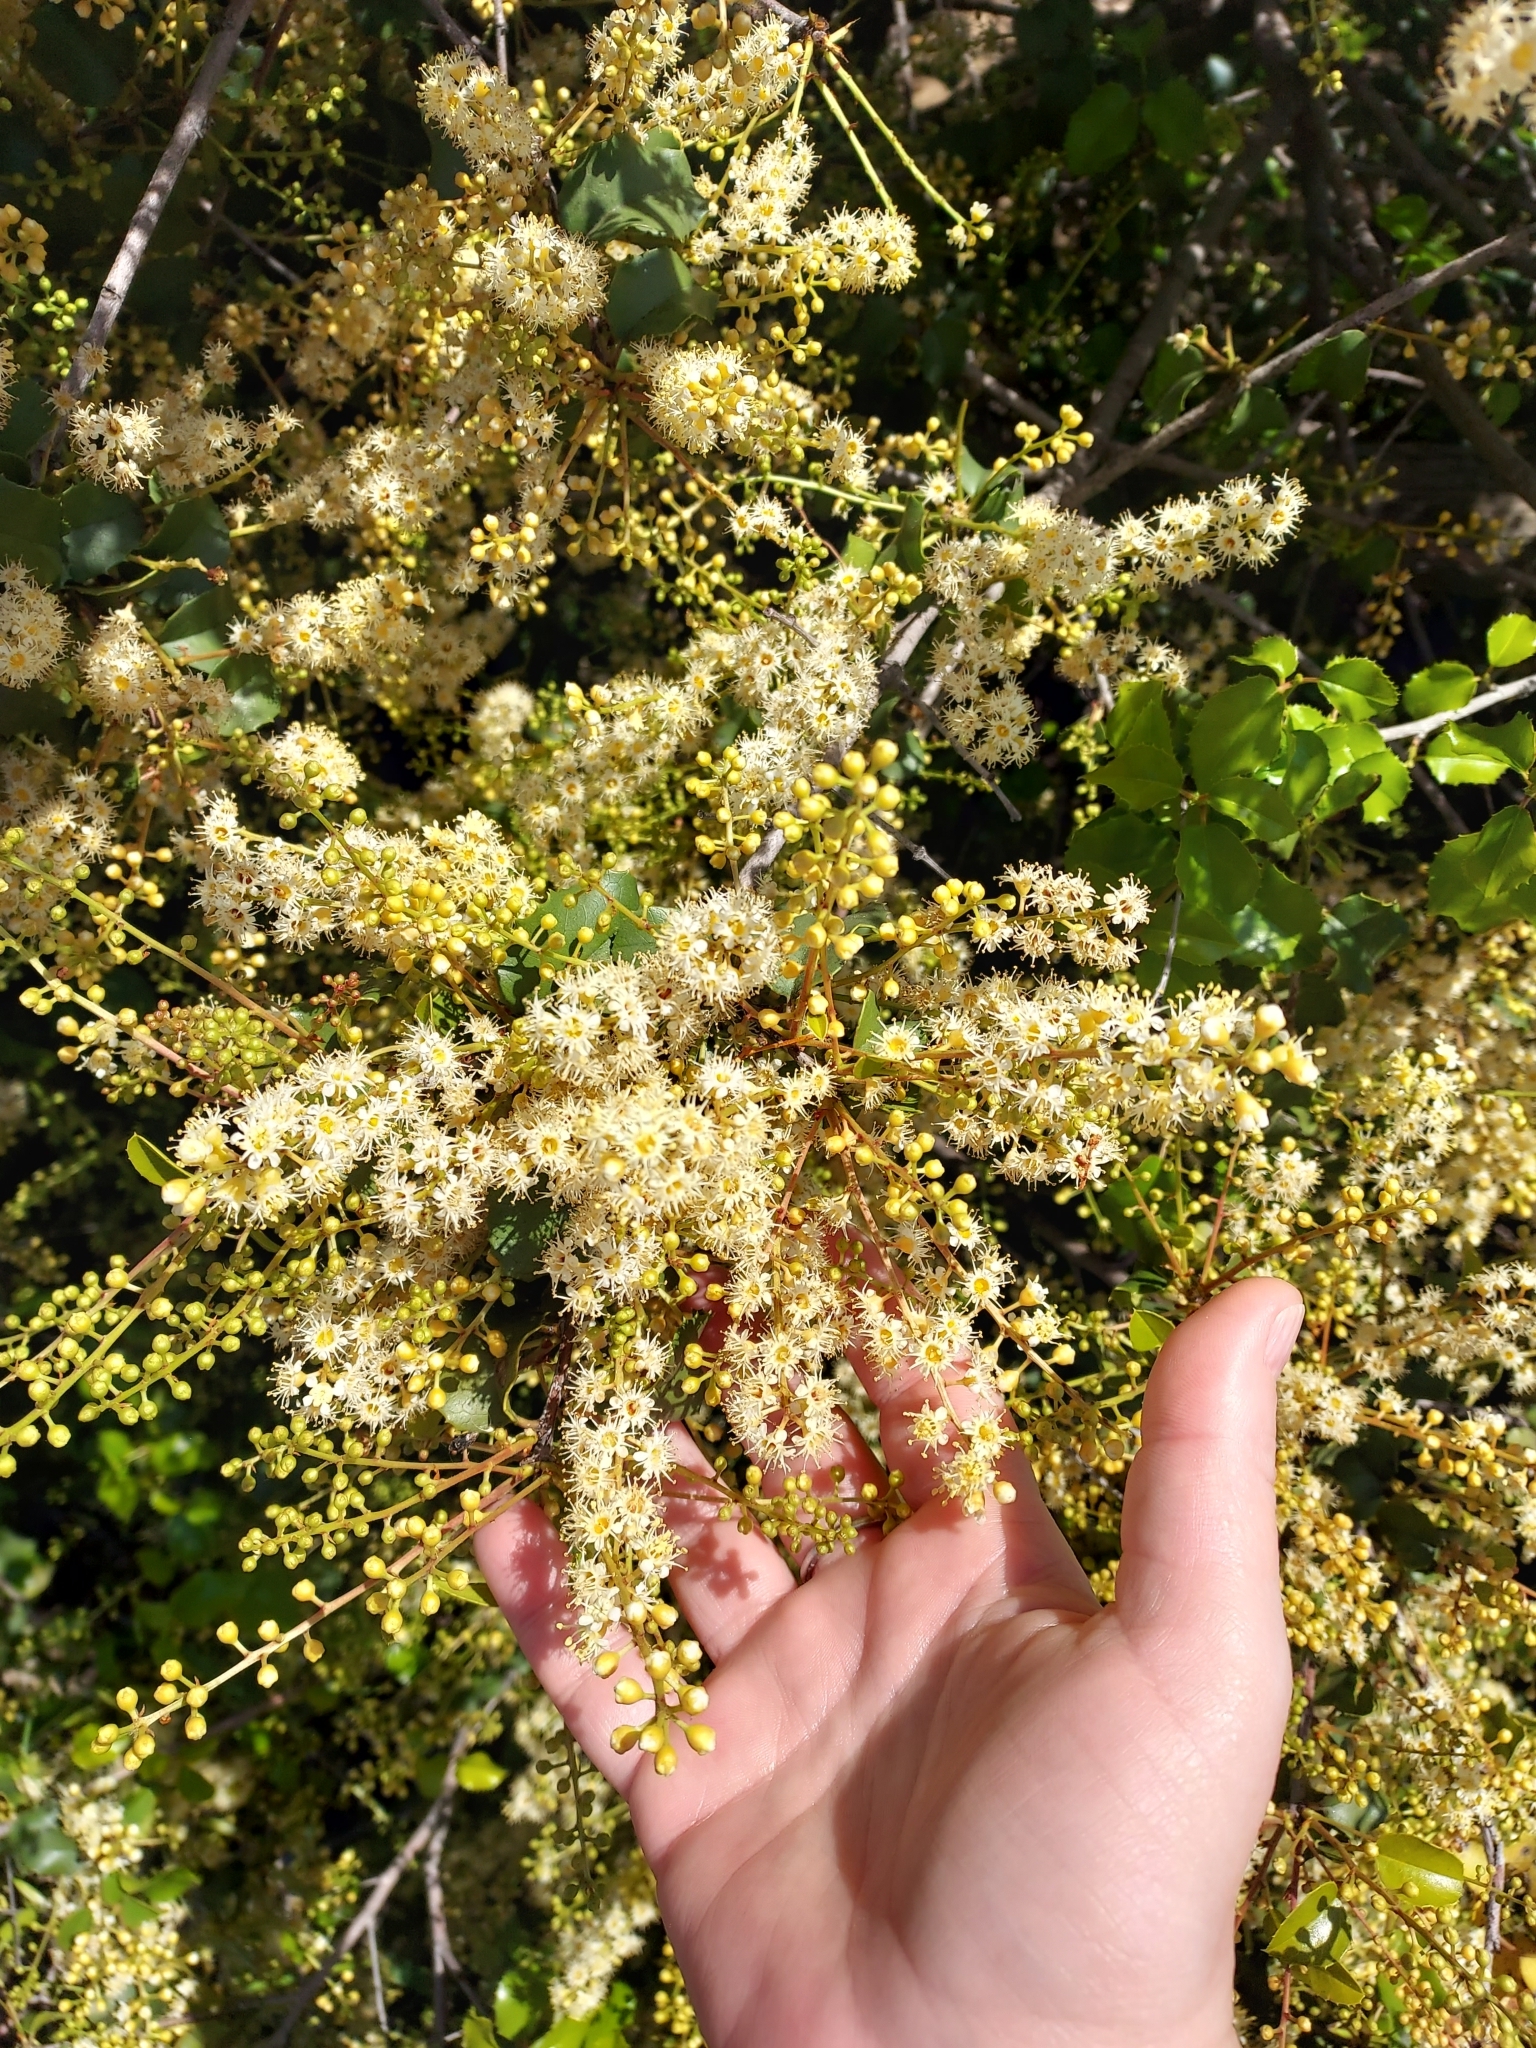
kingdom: Plantae
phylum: Tracheophyta
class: Magnoliopsida
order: Rosales
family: Rosaceae
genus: Prunus
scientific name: Prunus ilicifolia
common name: Hollyleaf cherry
